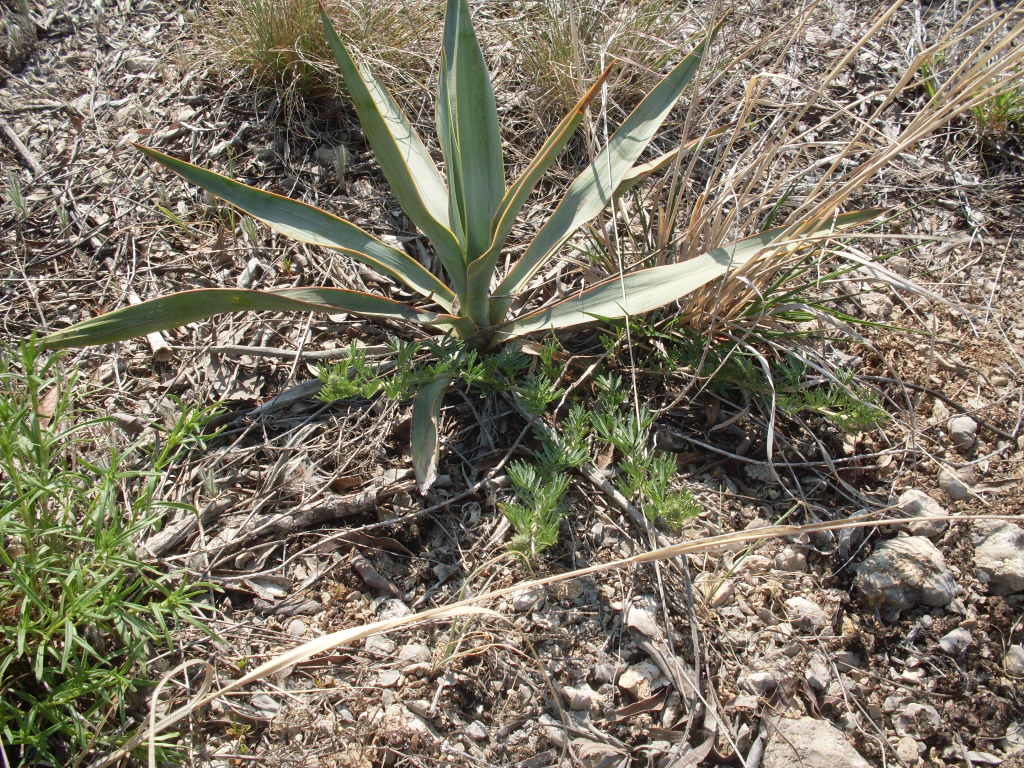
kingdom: Plantae
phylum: Tracheophyta
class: Liliopsida
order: Asparagales
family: Asparagaceae
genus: Yucca
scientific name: Yucca pallida
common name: Pale leaf yucca
